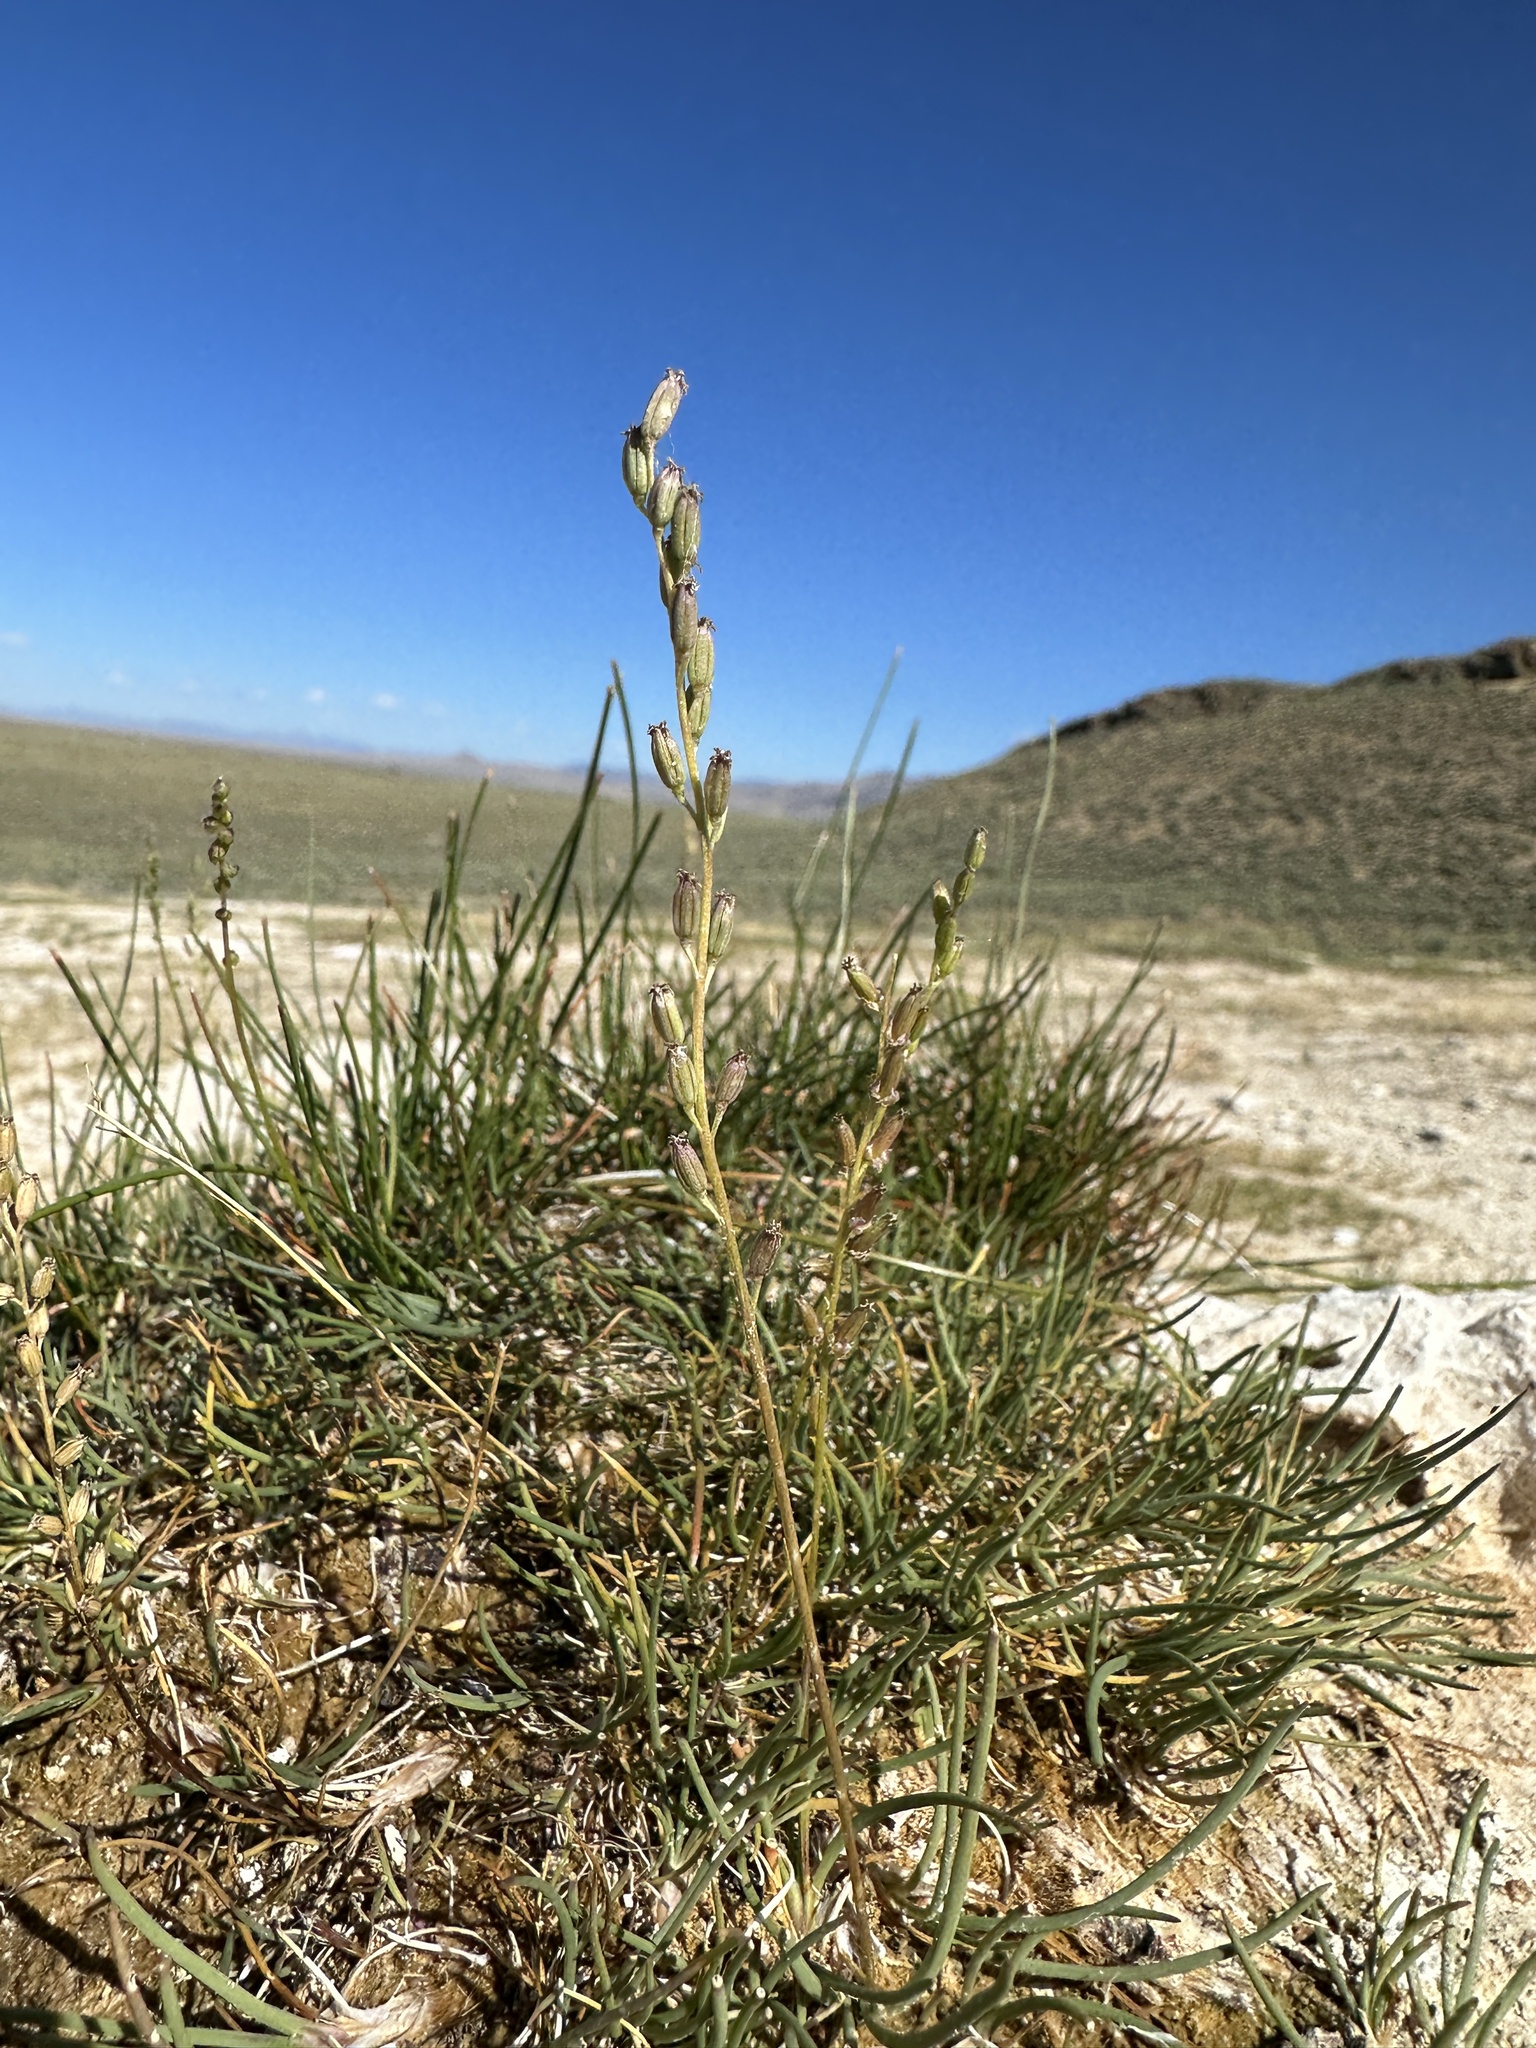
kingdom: Plantae
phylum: Tracheophyta
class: Liliopsida
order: Alismatales
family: Juncaginaceae
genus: Triglochin
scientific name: Triglochin maritima
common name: Sea arrowgrass
